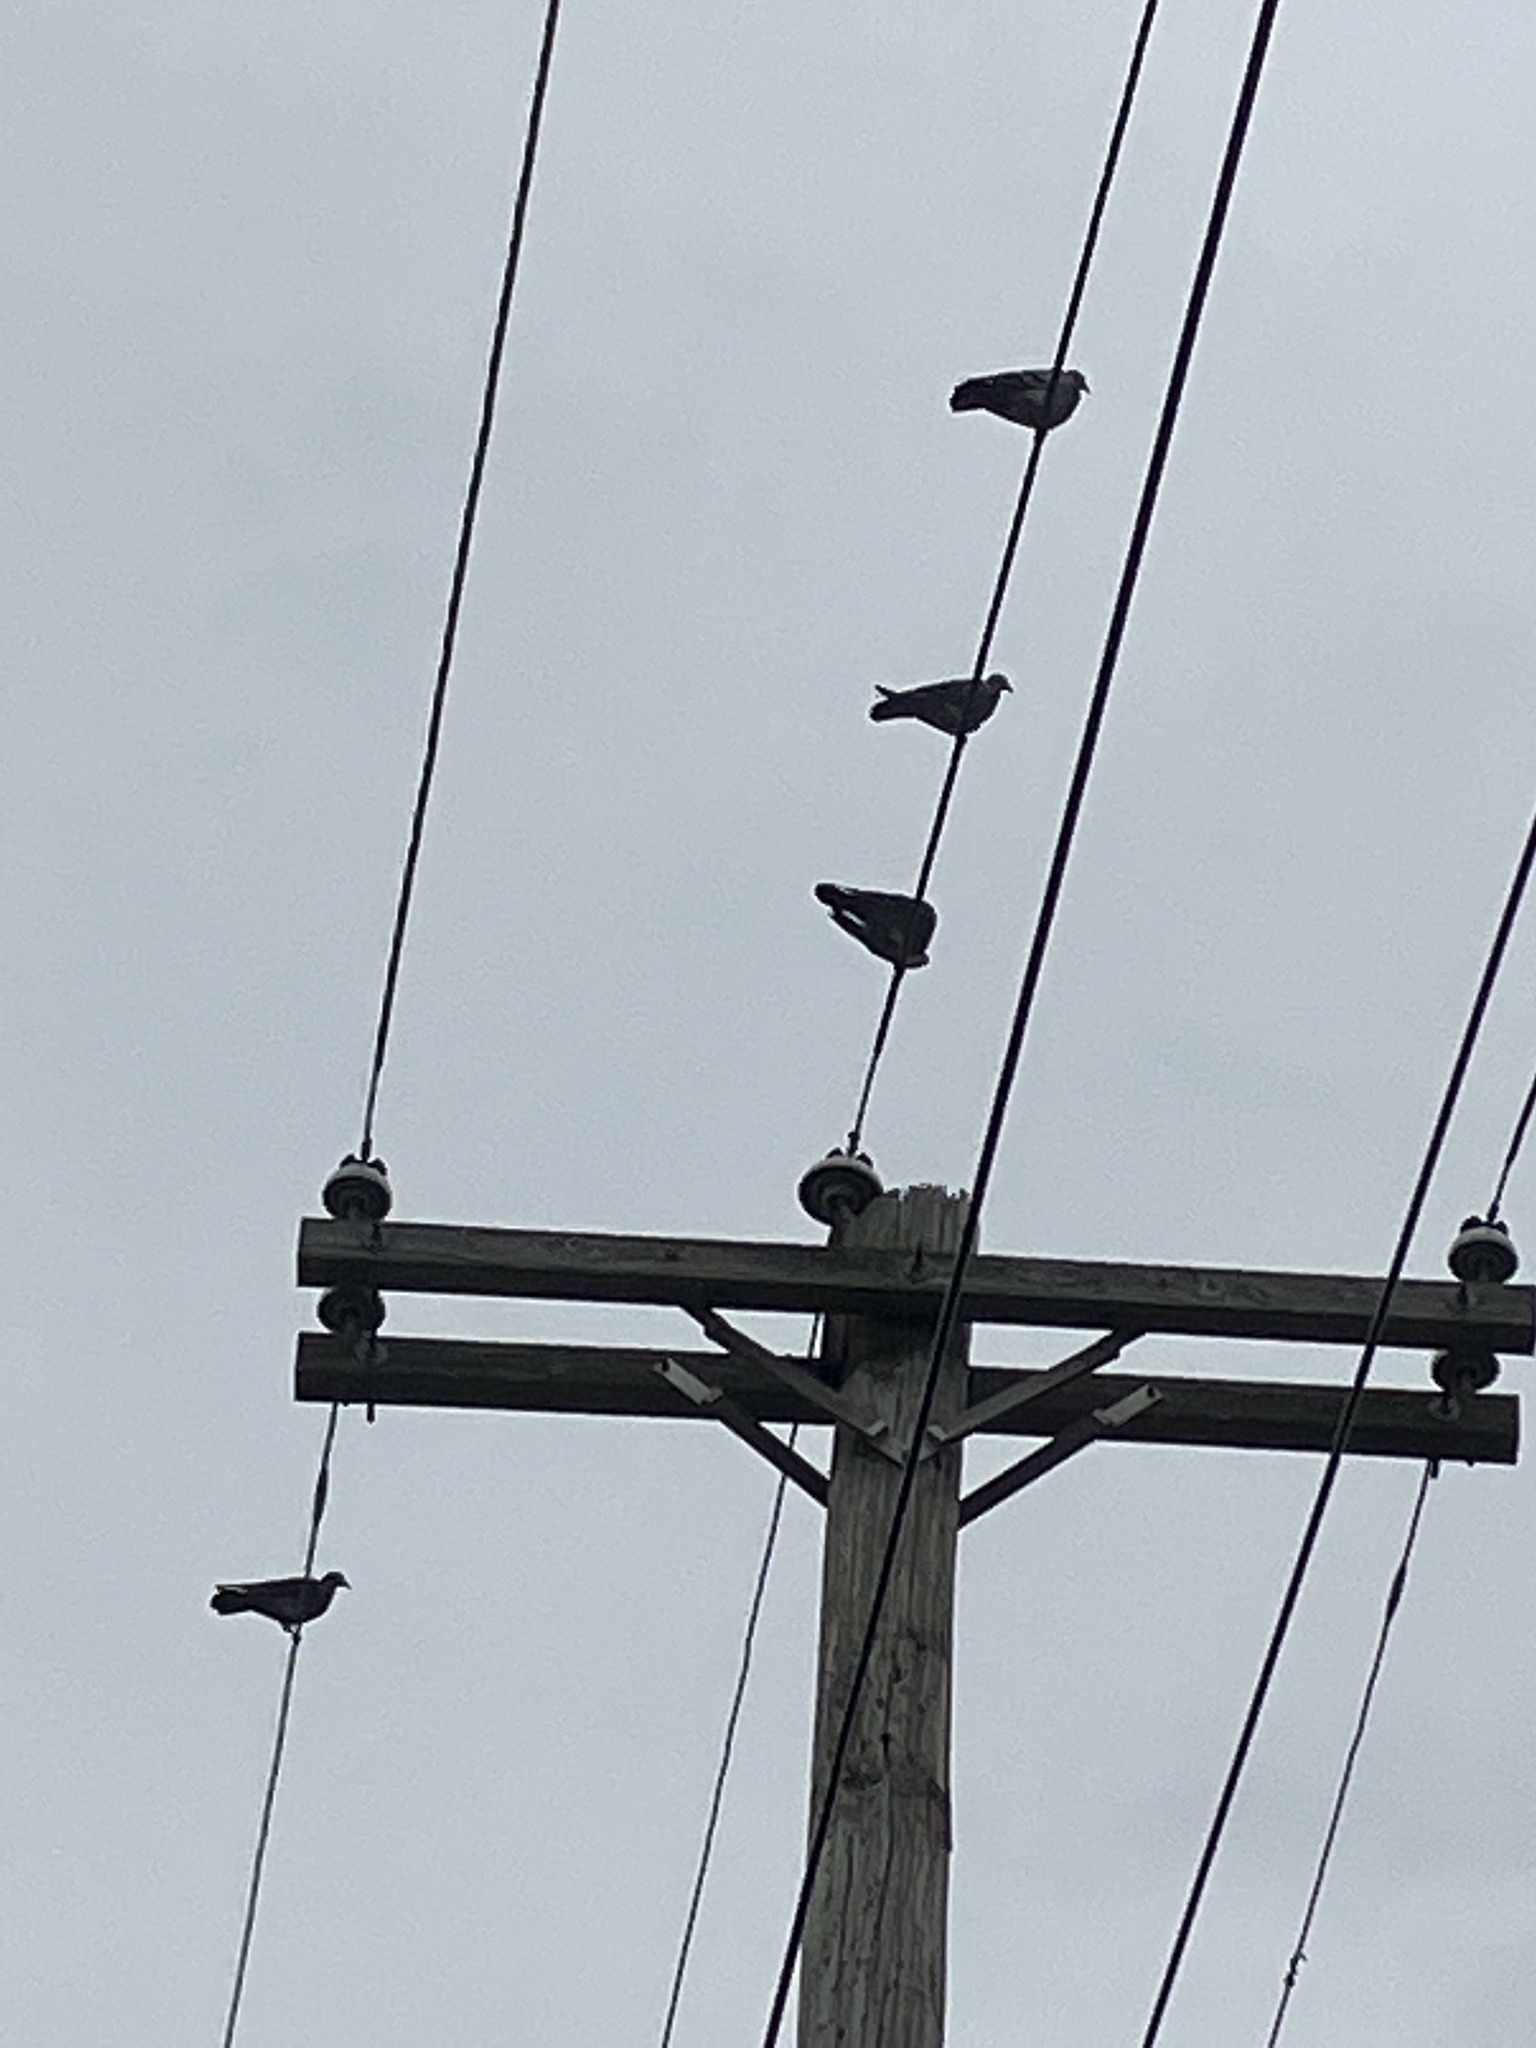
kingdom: Animalia
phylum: Chordata
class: Aves
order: Columbiformes
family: Columbidae
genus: Columba
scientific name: Columba livia
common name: Rock pigeon
